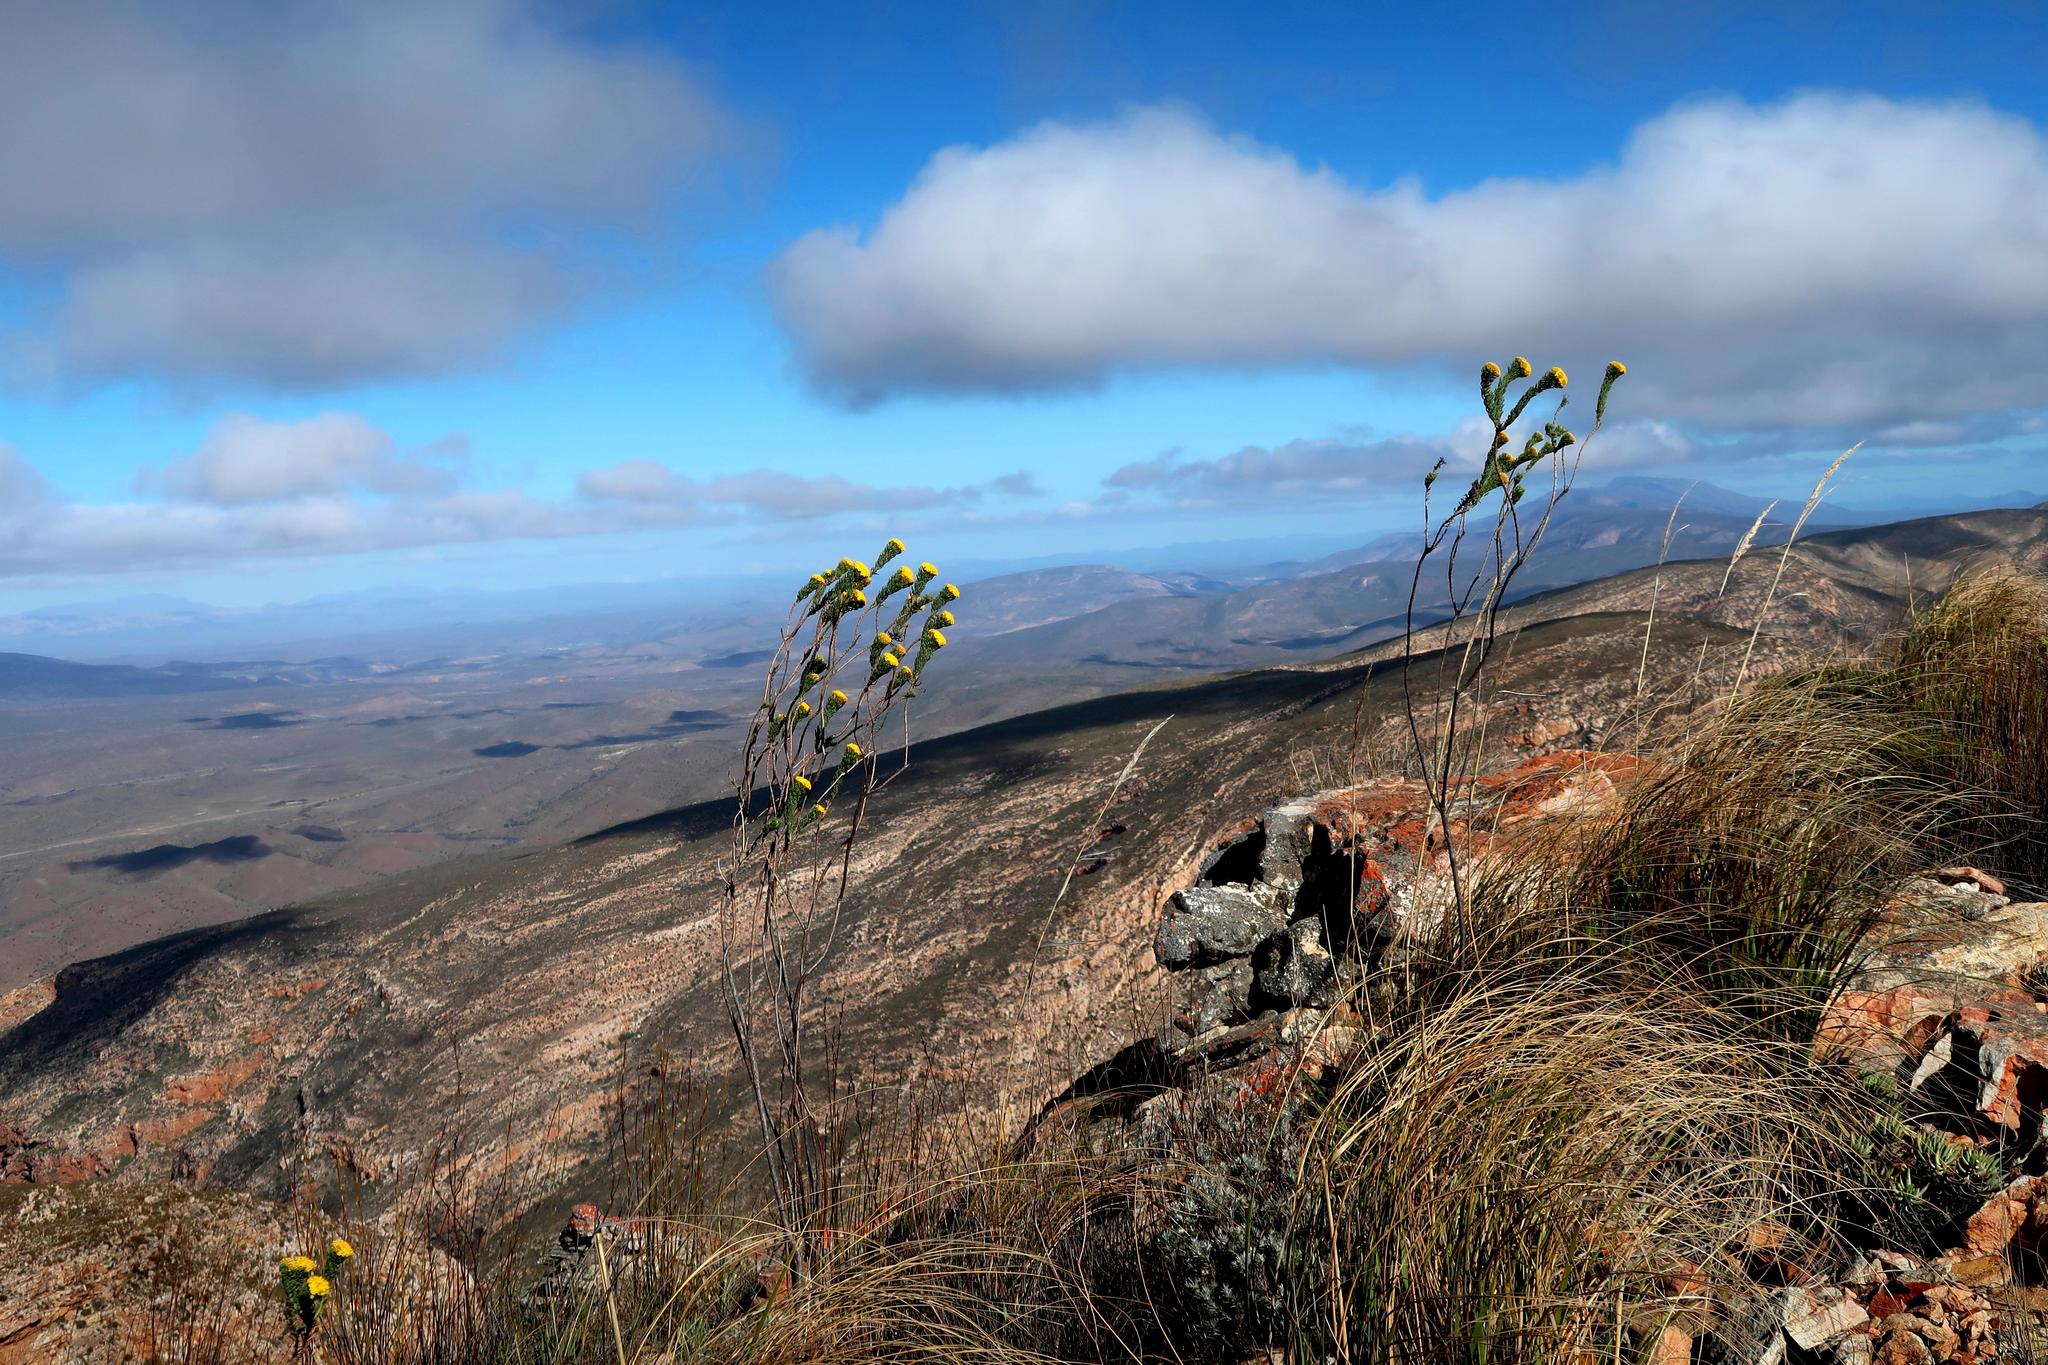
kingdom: Plantae
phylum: Tracheophyta
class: Magnoliopsida
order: Asterales
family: Asteraceae
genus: Hymenolepis
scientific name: Hymenolepis incisa
